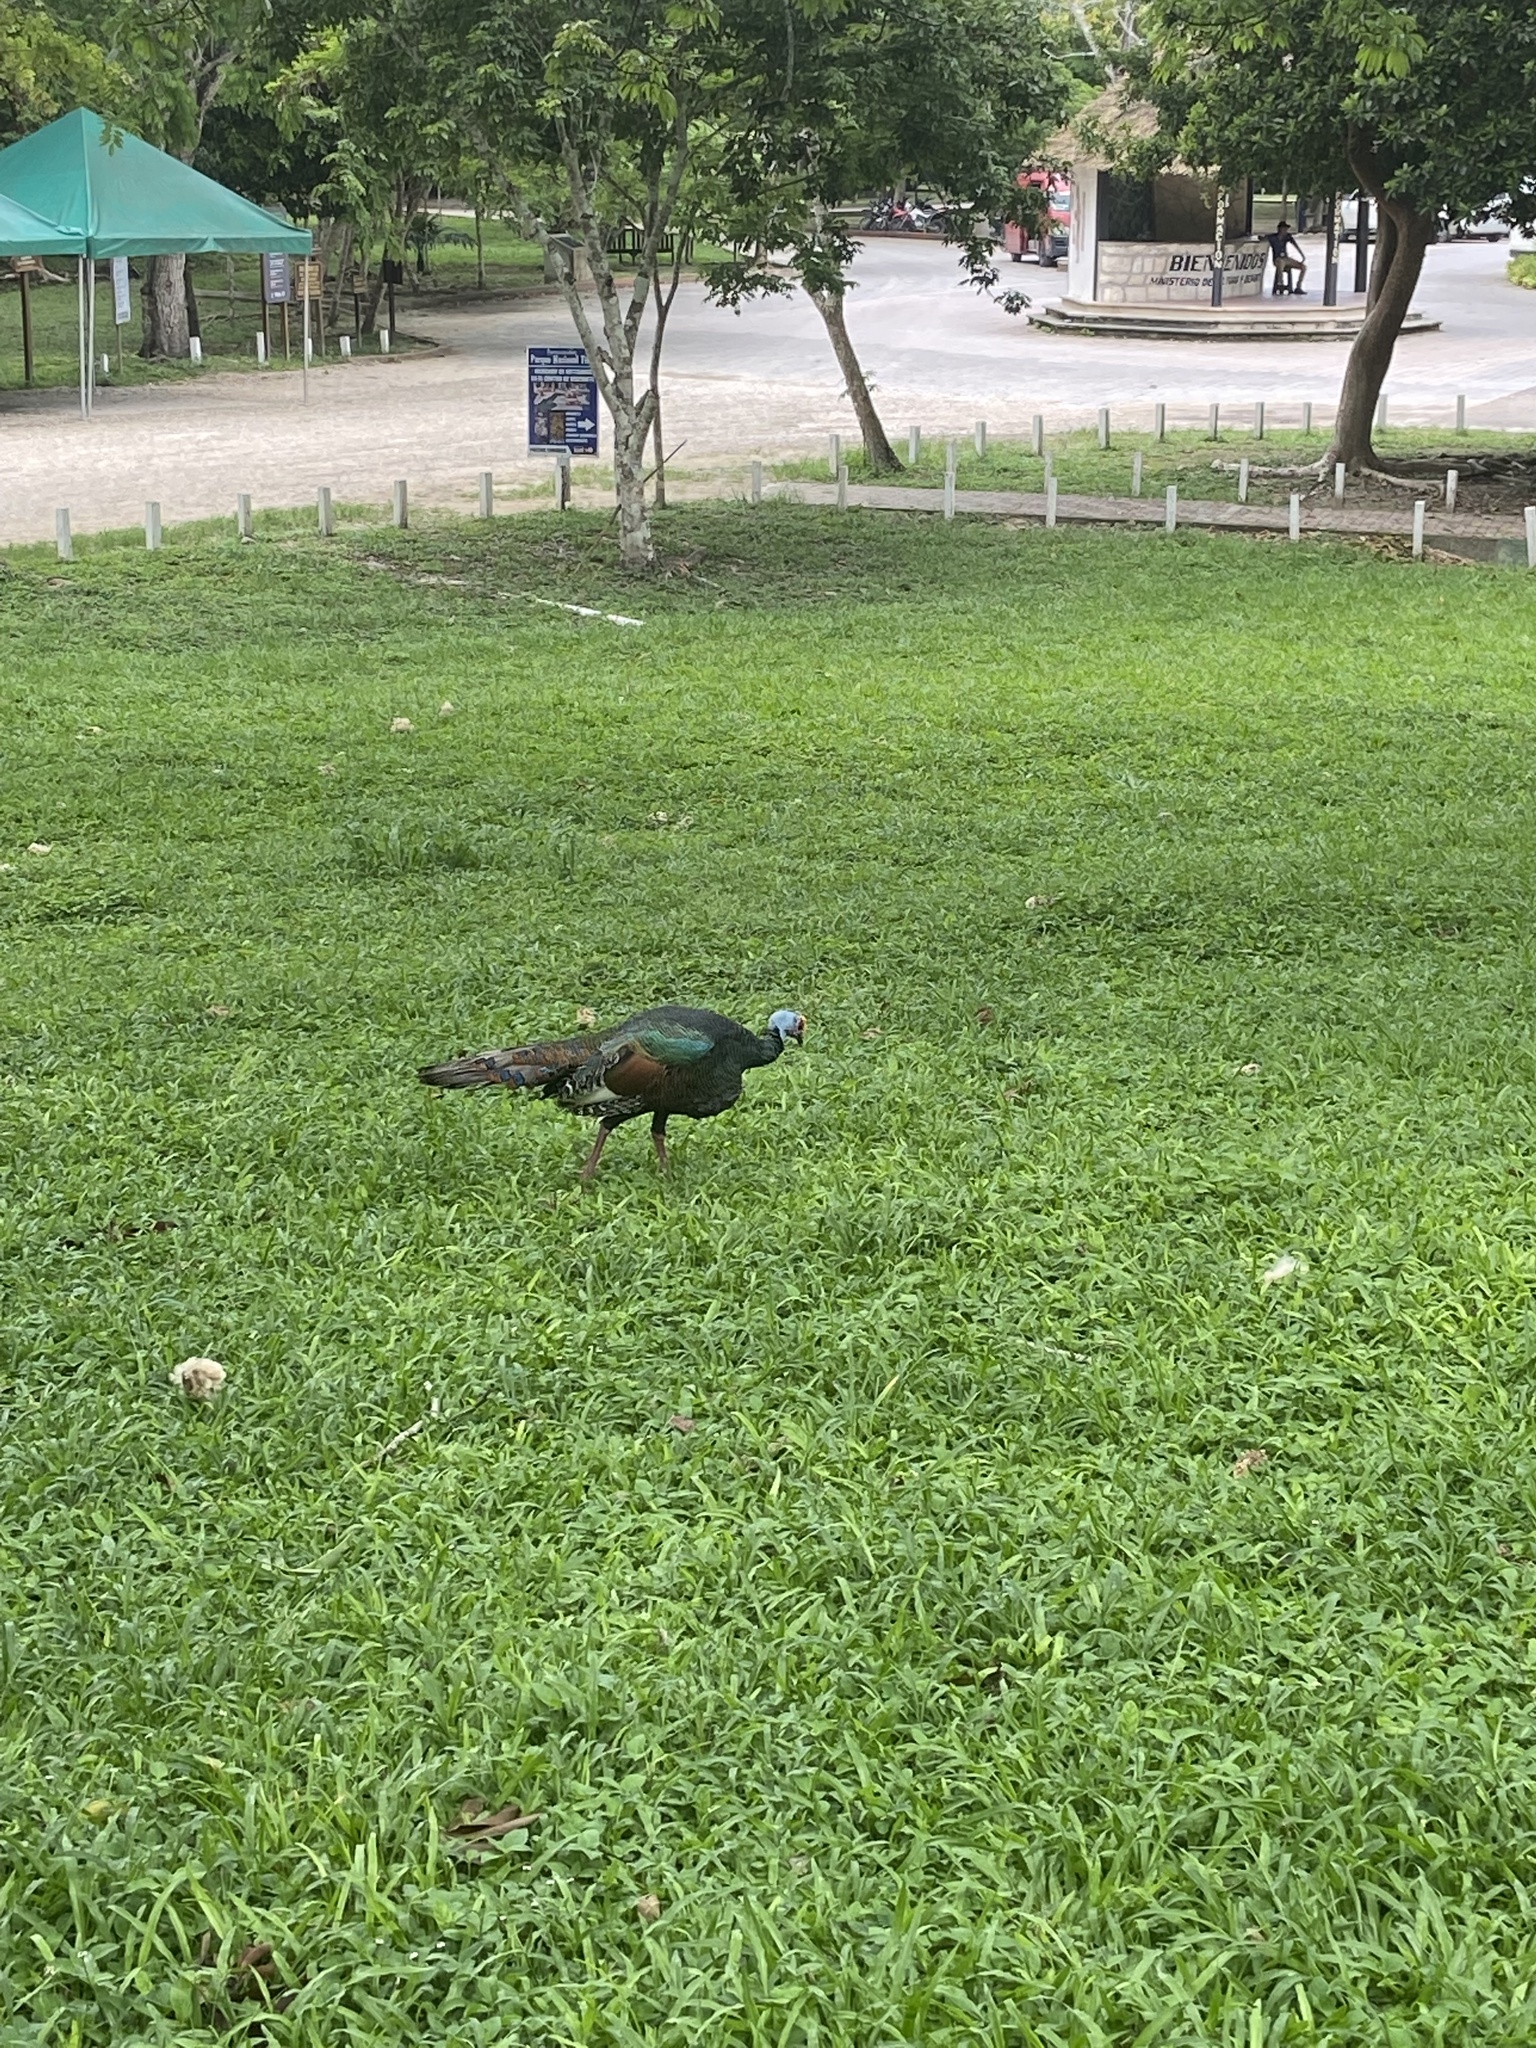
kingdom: Animalia
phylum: Chordata
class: Aves
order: Galliformes
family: Phasianidae
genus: Meleagris
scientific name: Meleagris ocellata
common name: Ocellated turkey
